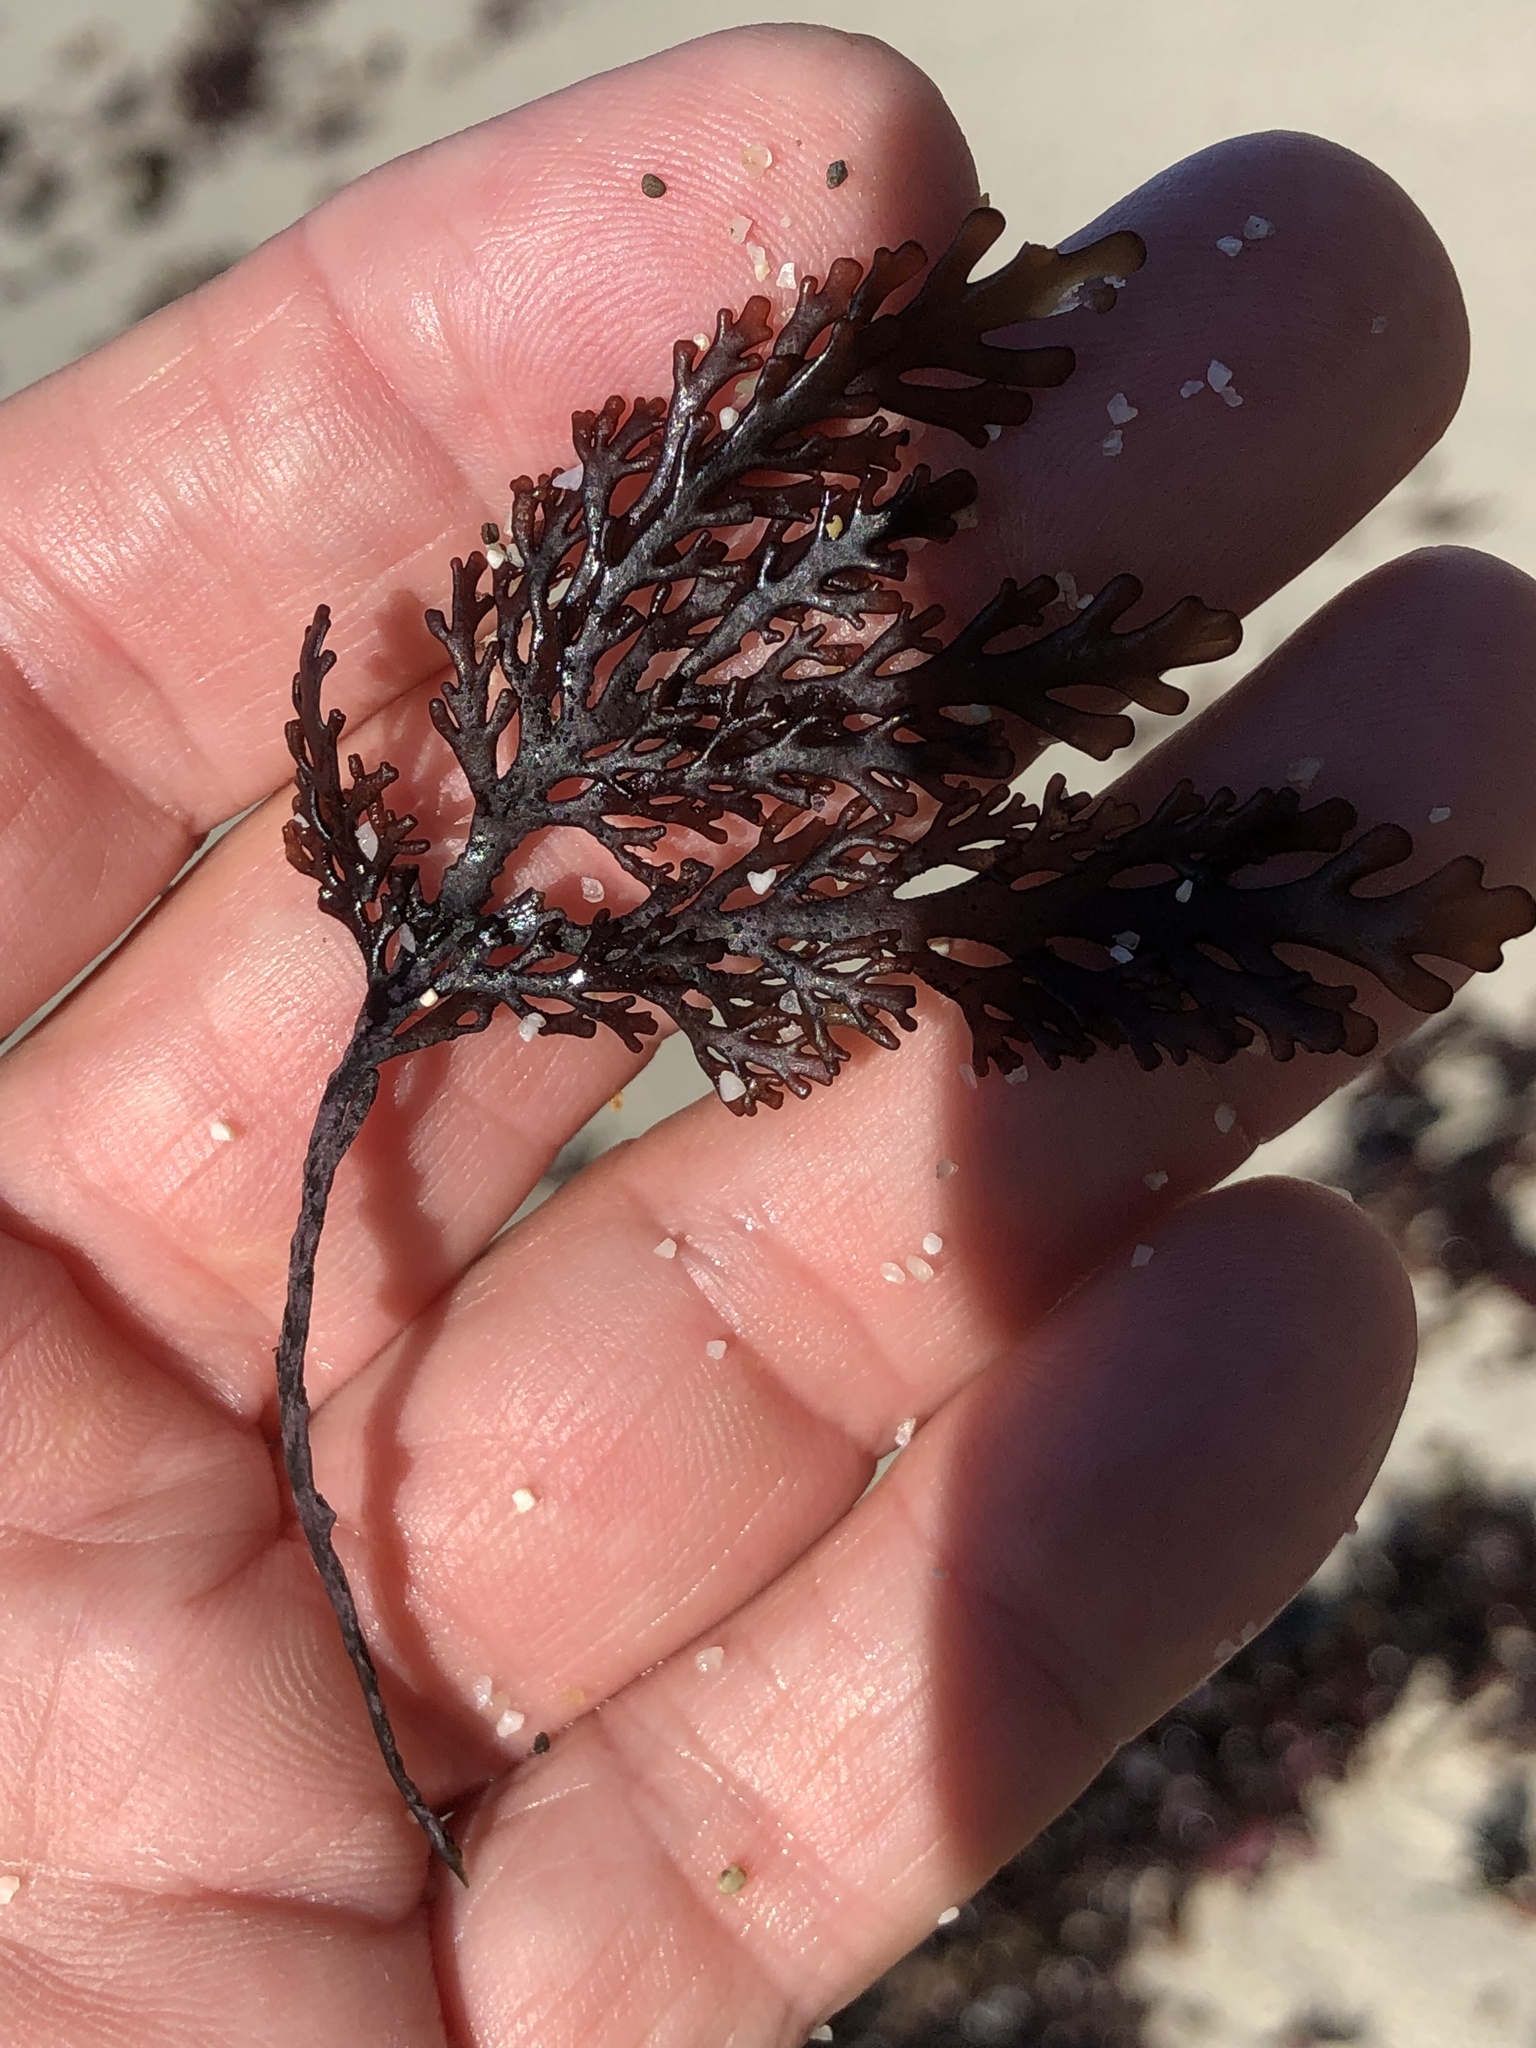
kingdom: Plantae
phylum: Rhodophyta
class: Florideophyceae
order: Ceramiales
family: Rhodomelaceae
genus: Osmundea
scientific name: Osmundea spectabilis
